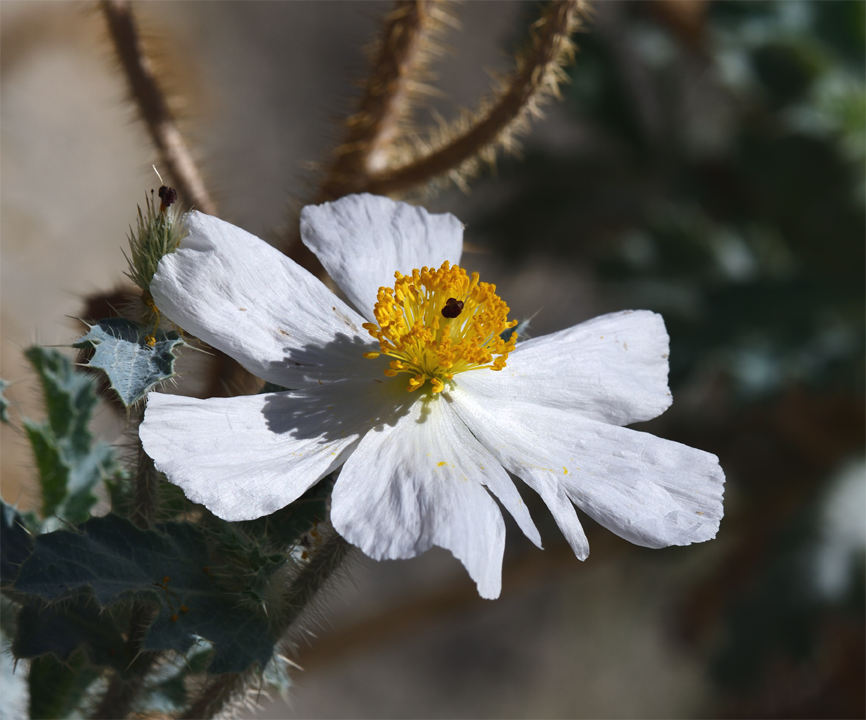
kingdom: Plantae
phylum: Tracheophyta
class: Magnoliopsida
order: Ranunculales
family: Papaveraceae
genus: Argemone
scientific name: Argemone munita
